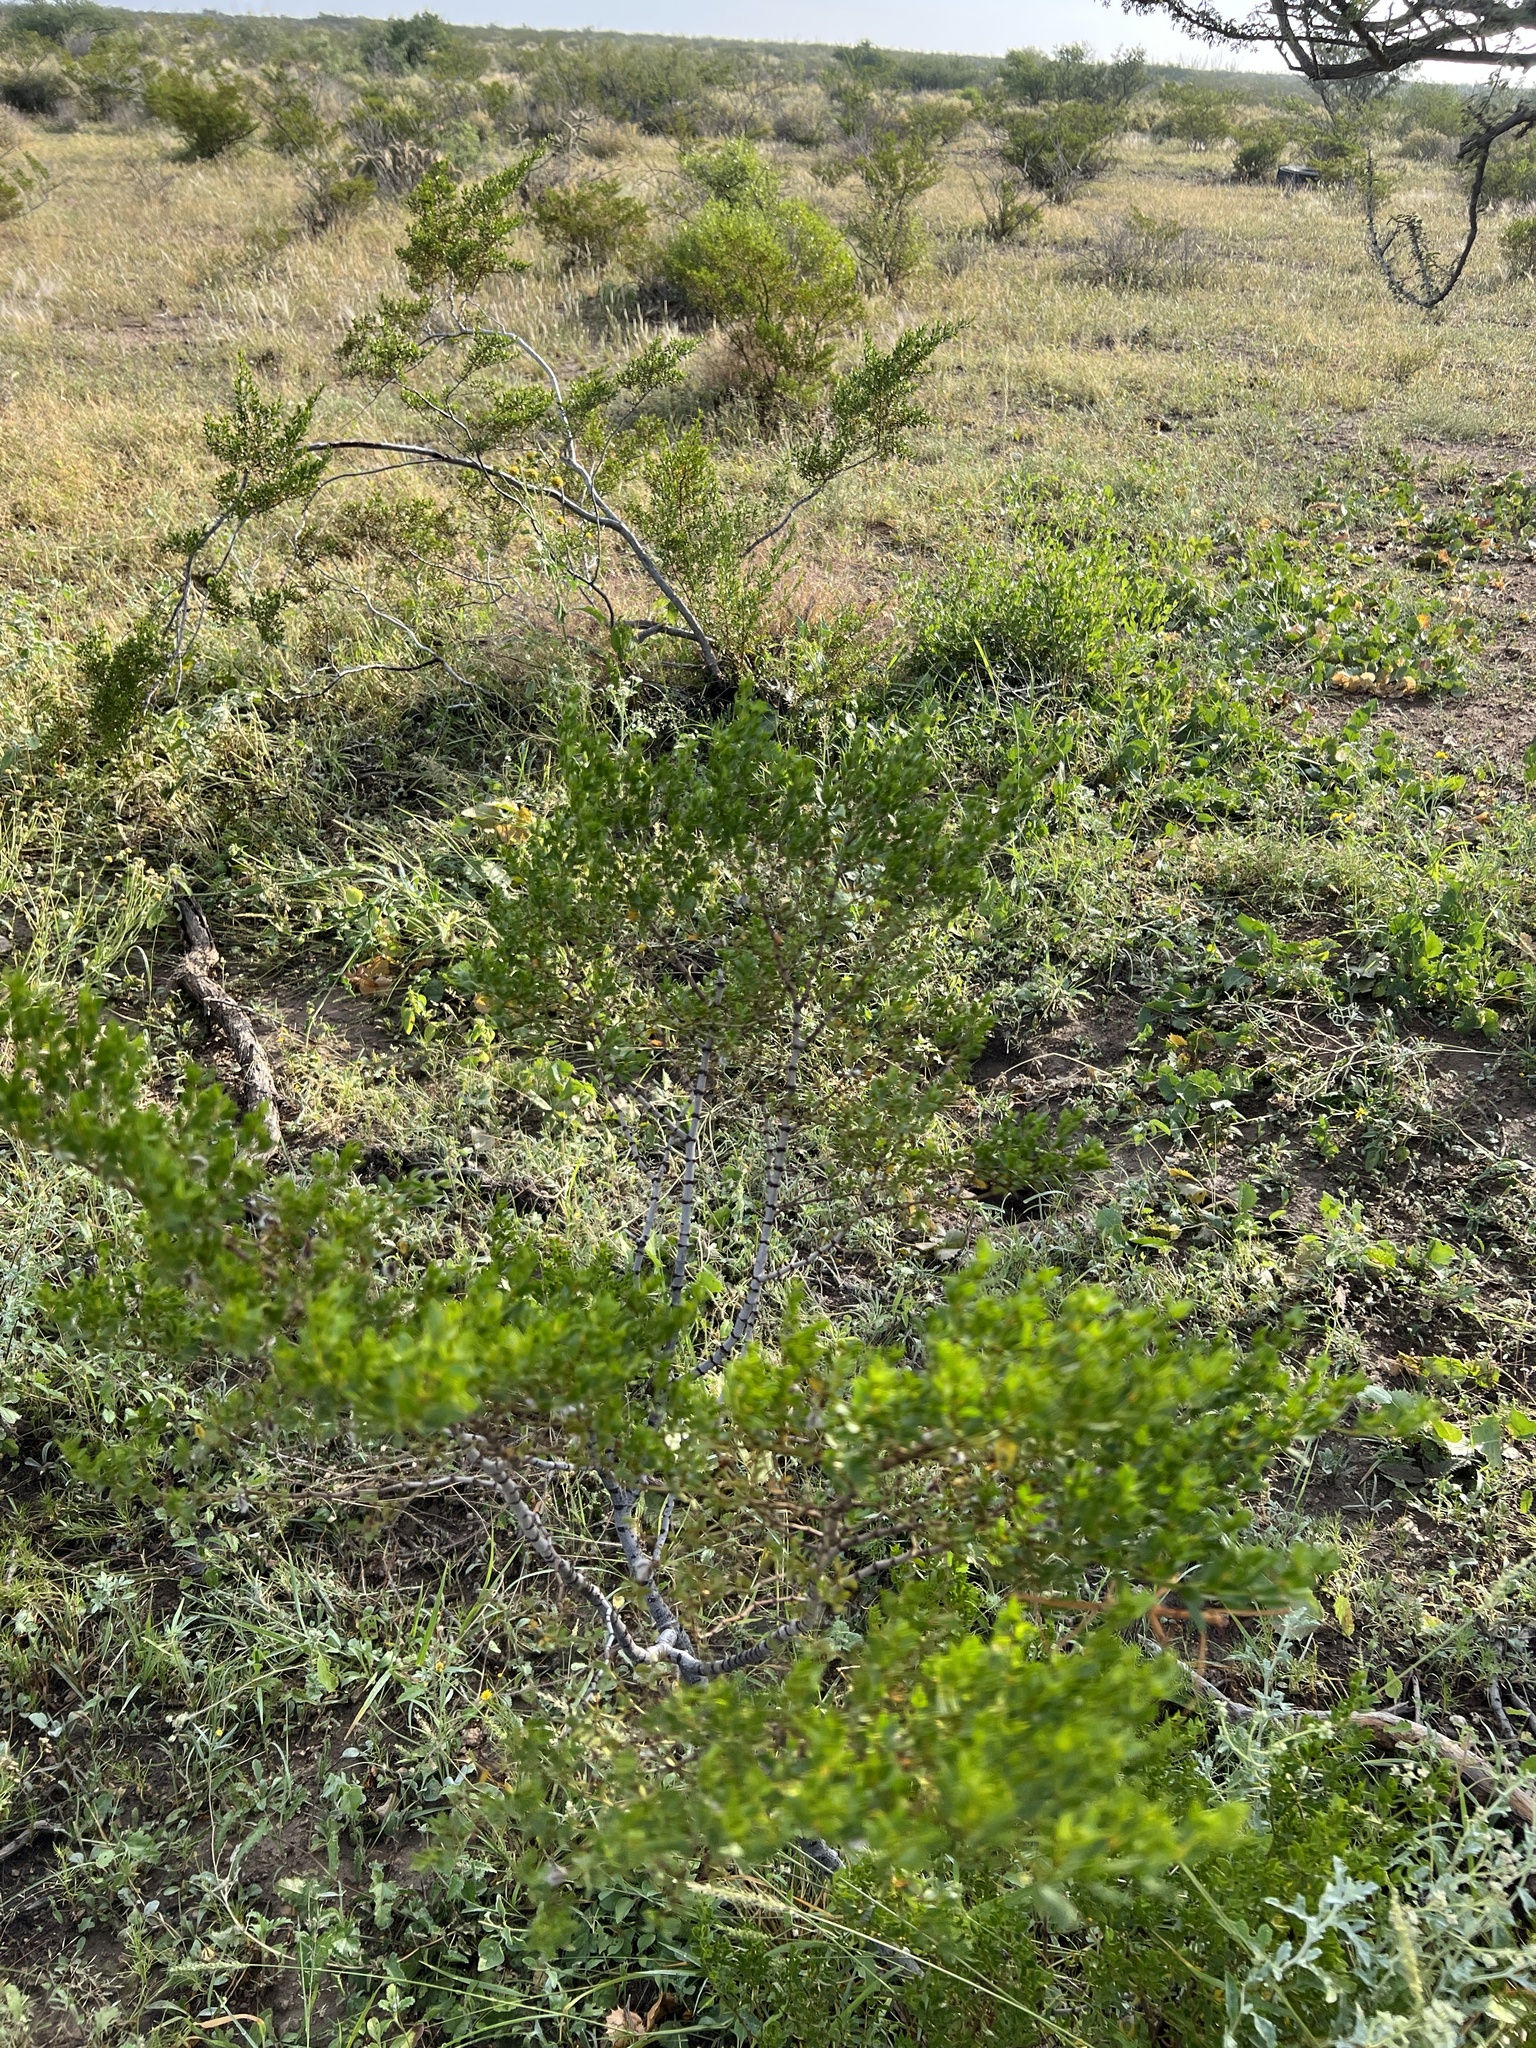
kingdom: Plantae
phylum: Tracheophyta
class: Magnoliopsida
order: Zygophyllales
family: Zygophyllaceae
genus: Larrea
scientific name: Larrea tridentata
